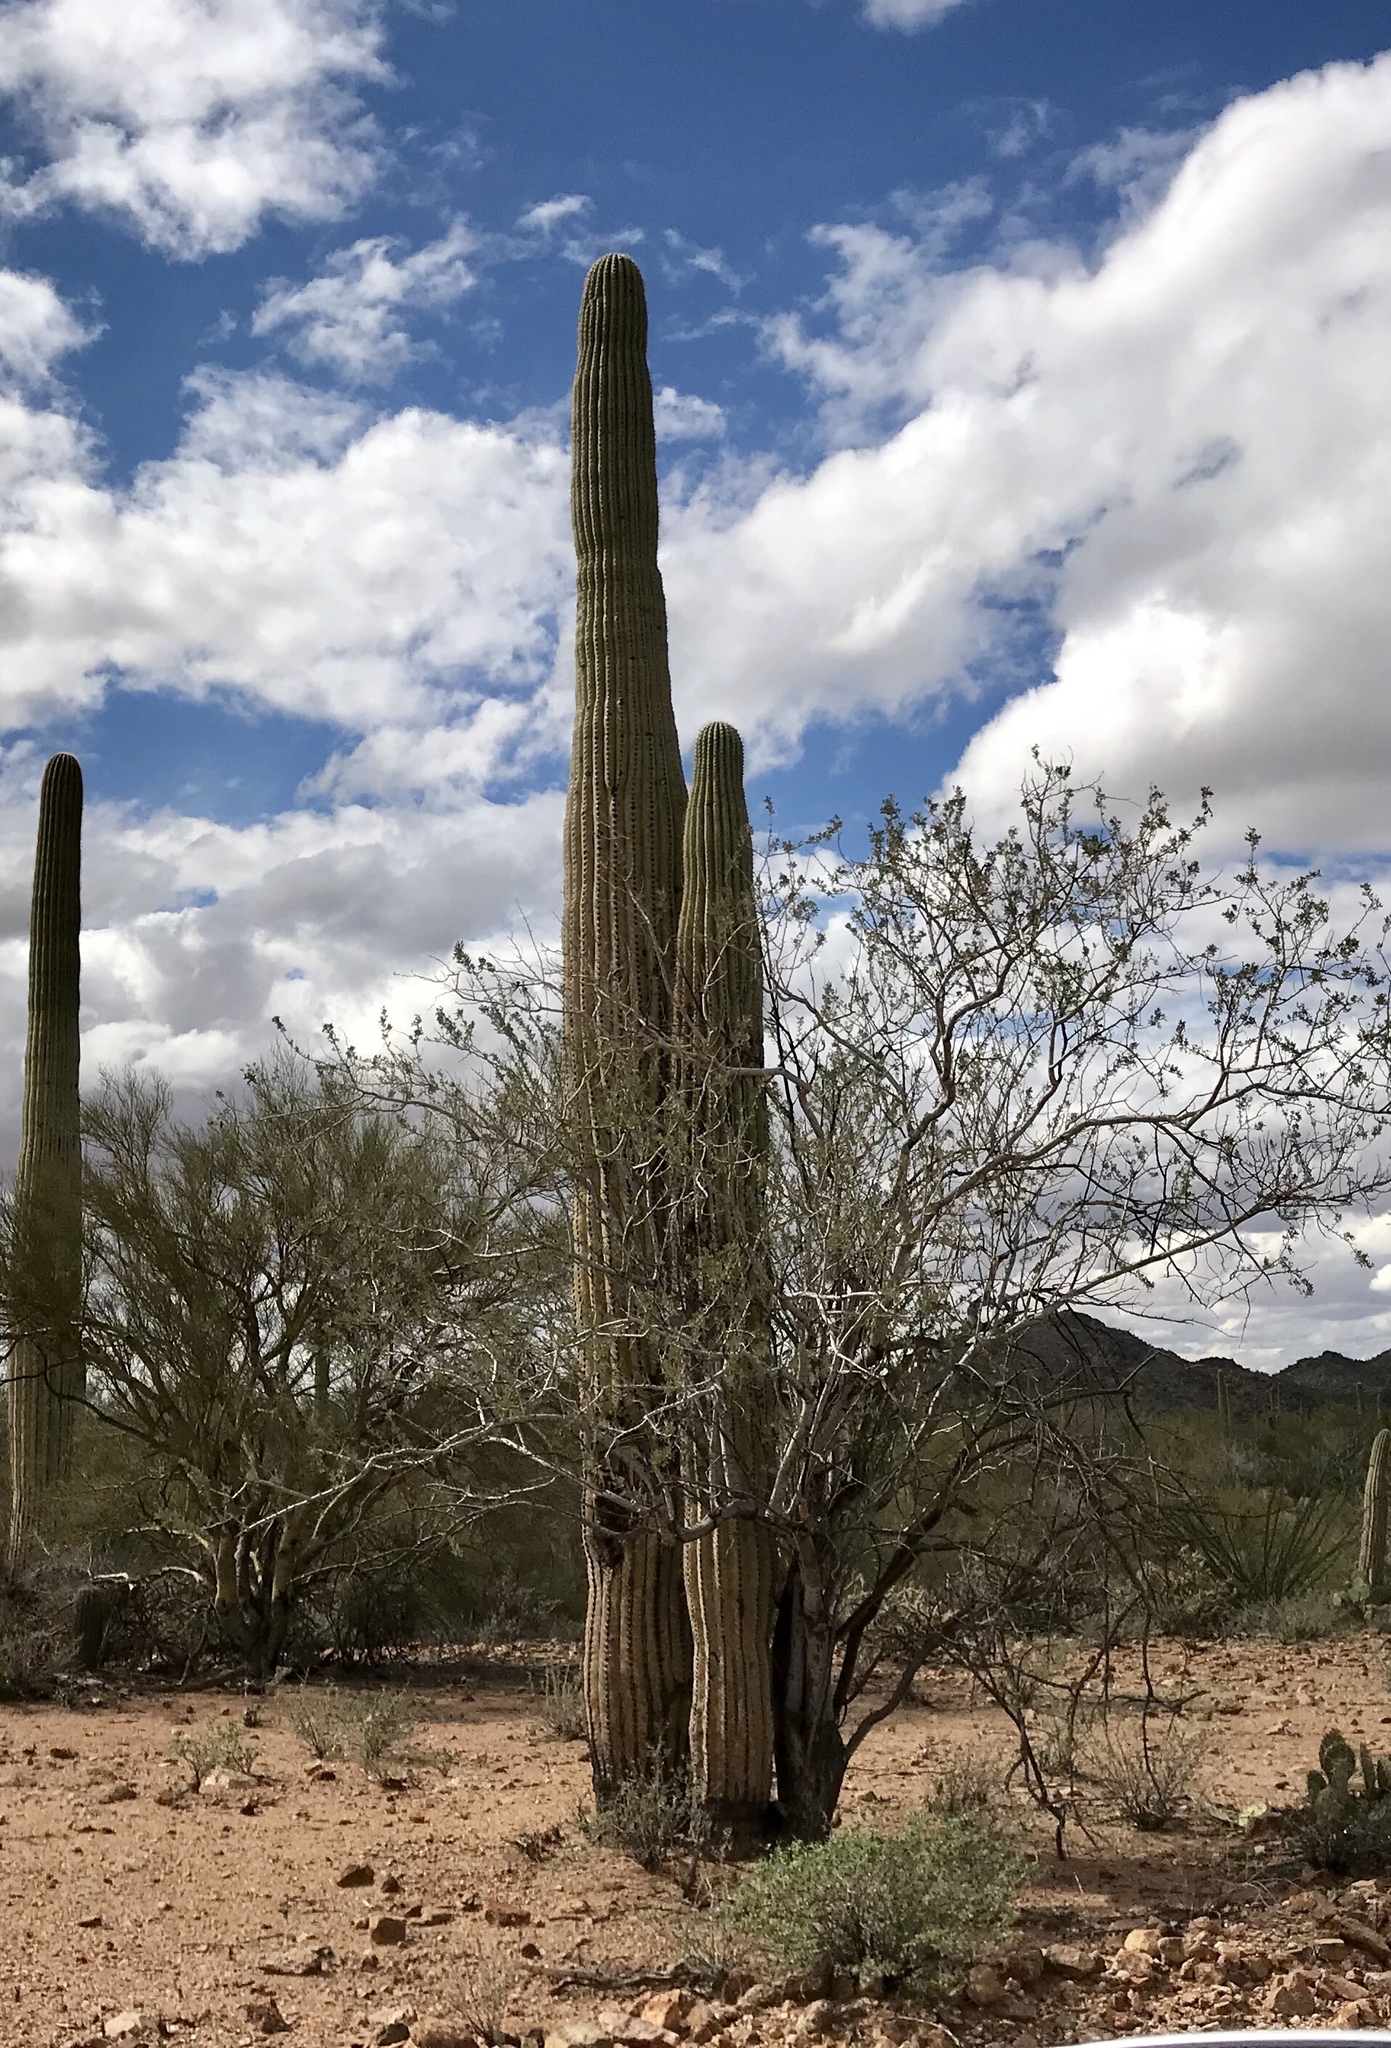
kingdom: Plantae
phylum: Tracheophyta
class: Magnoliopsida
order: Caryophyllales
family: Cactaceae
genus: Carnegiea
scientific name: Carnegiea gigantea
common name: Saguaro
